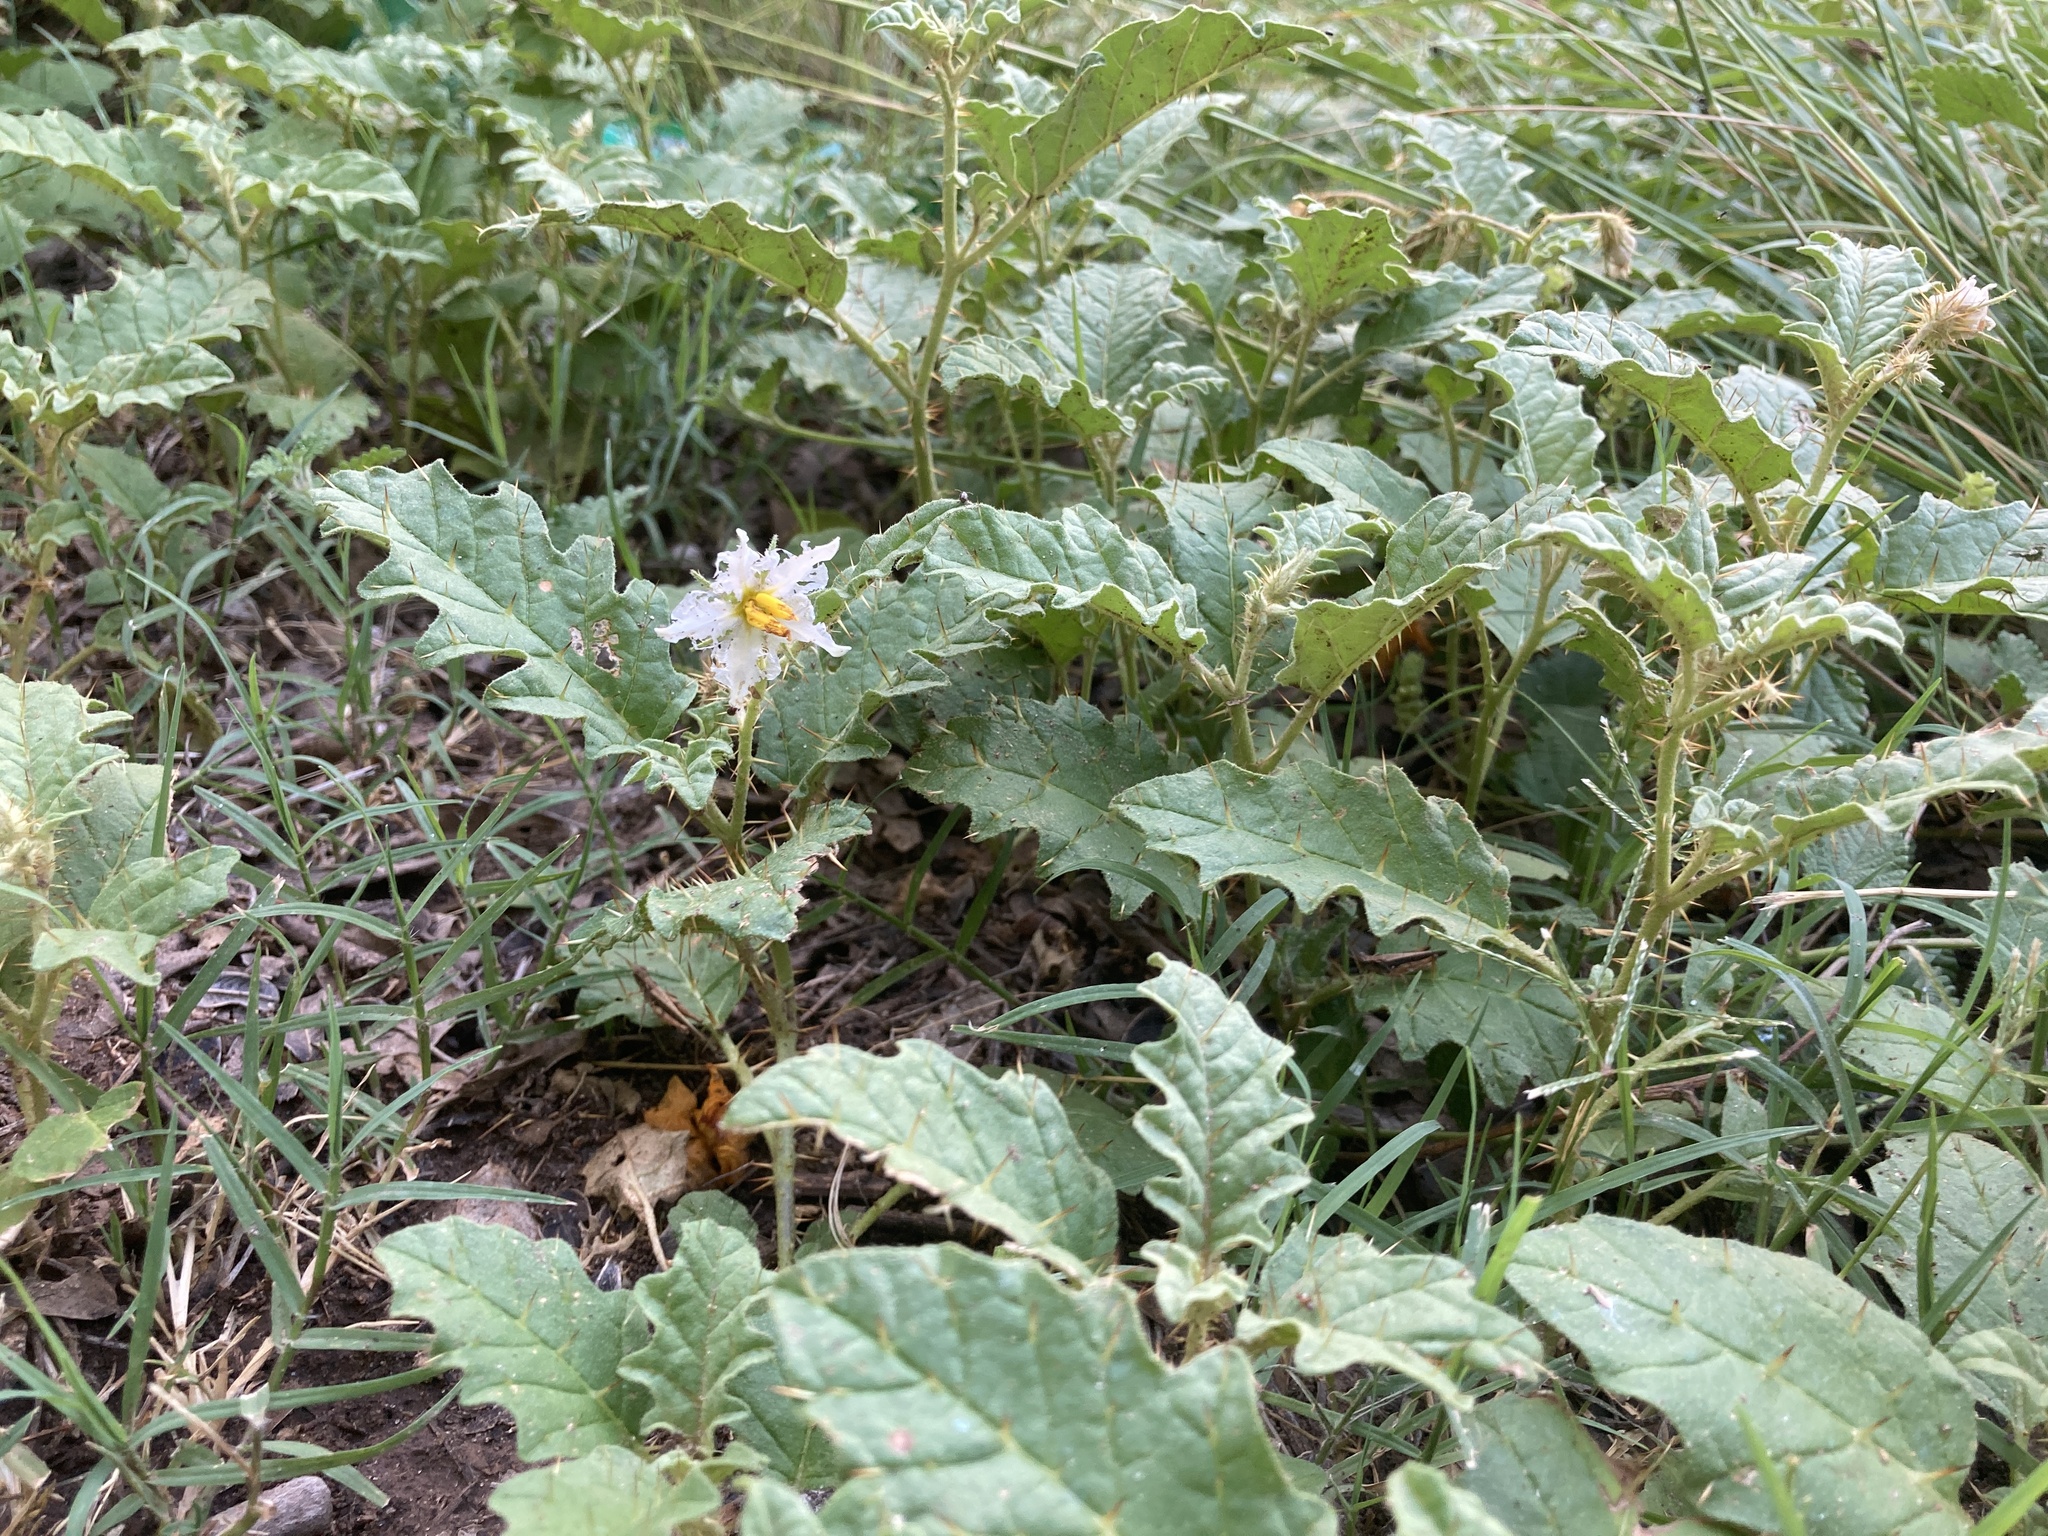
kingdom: Plantae
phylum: Tracheophyta
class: Magnoliopsida
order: Solanales
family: Solanaceae
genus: Solanum
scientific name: Solanum juvenale
